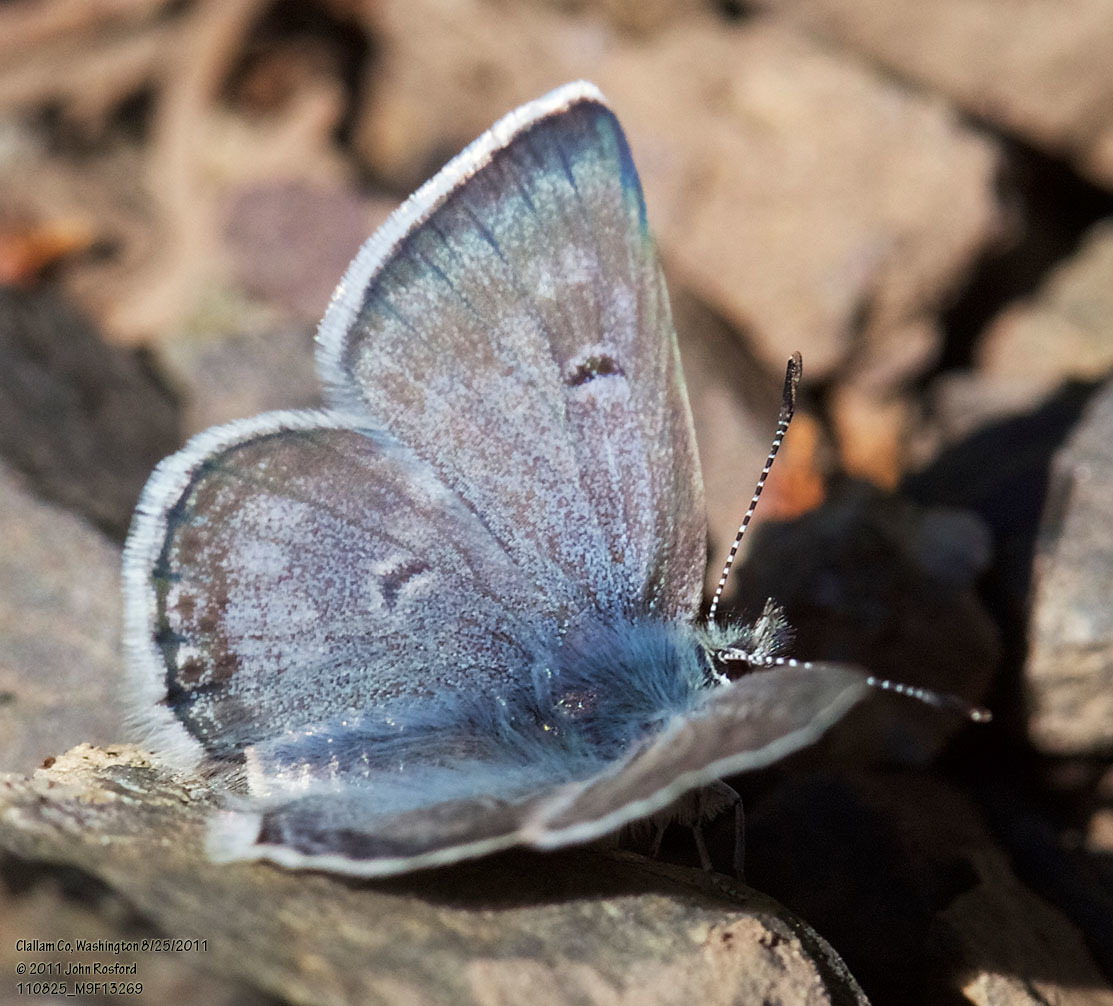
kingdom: Animalia
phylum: Arthropoda
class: Insecta
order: Lepidoptera
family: Lycaenidae
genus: Agriades
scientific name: Agriades glandon
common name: Glandon blue
